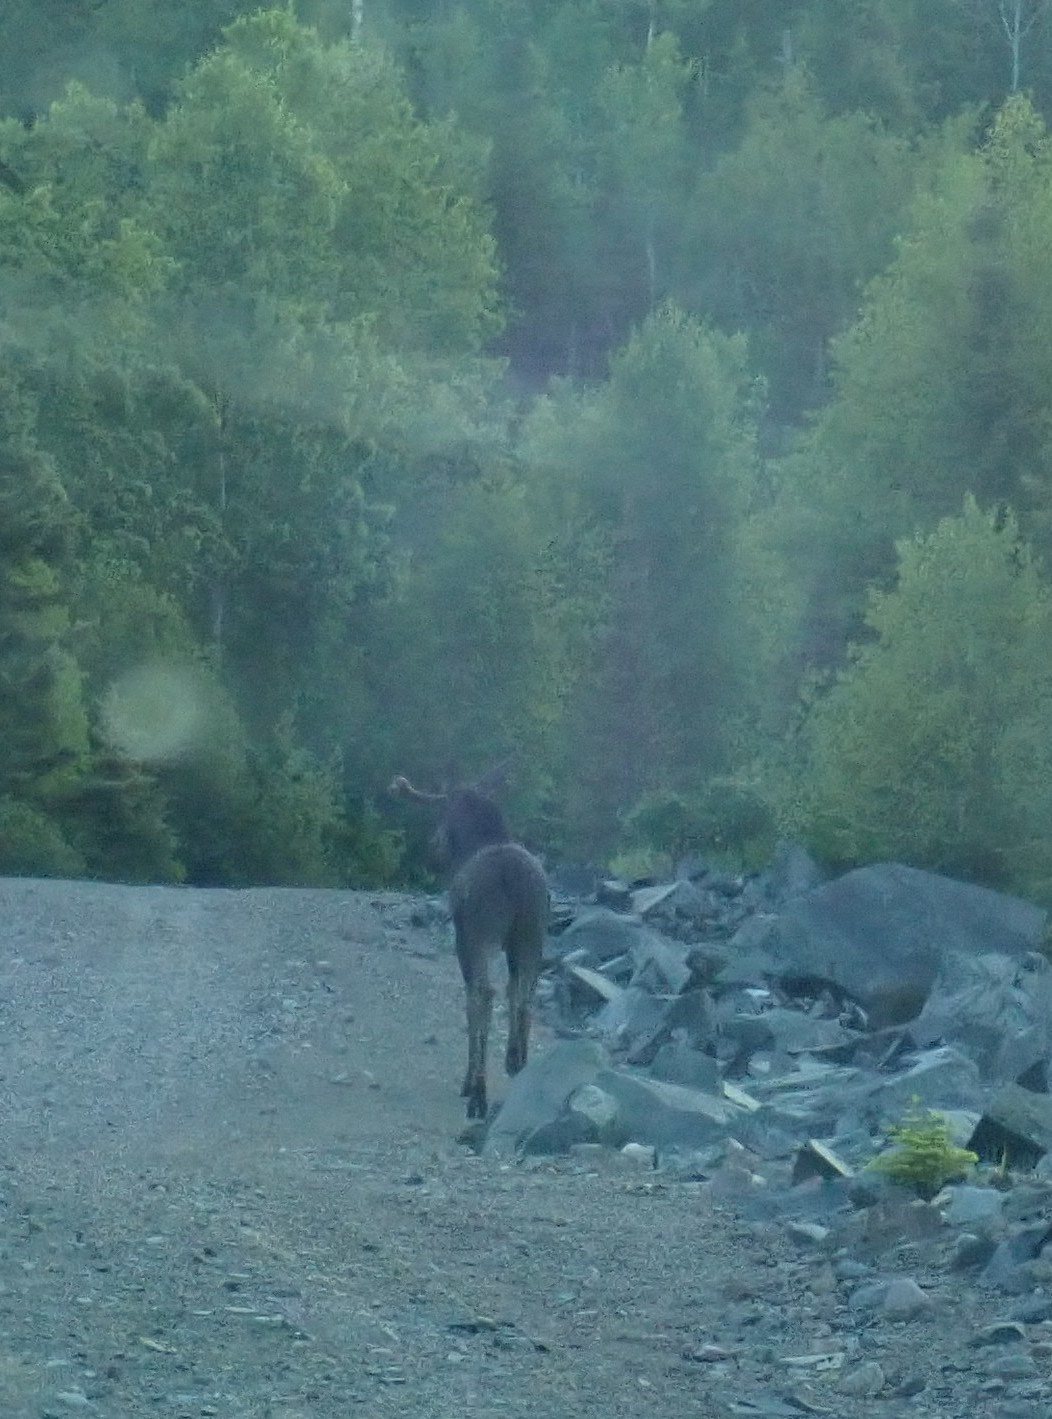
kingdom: Animalia
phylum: Chordata
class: Mammalia
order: Artiodactyla
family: Cervidae
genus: Alces
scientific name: Alces alces
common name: Moose
